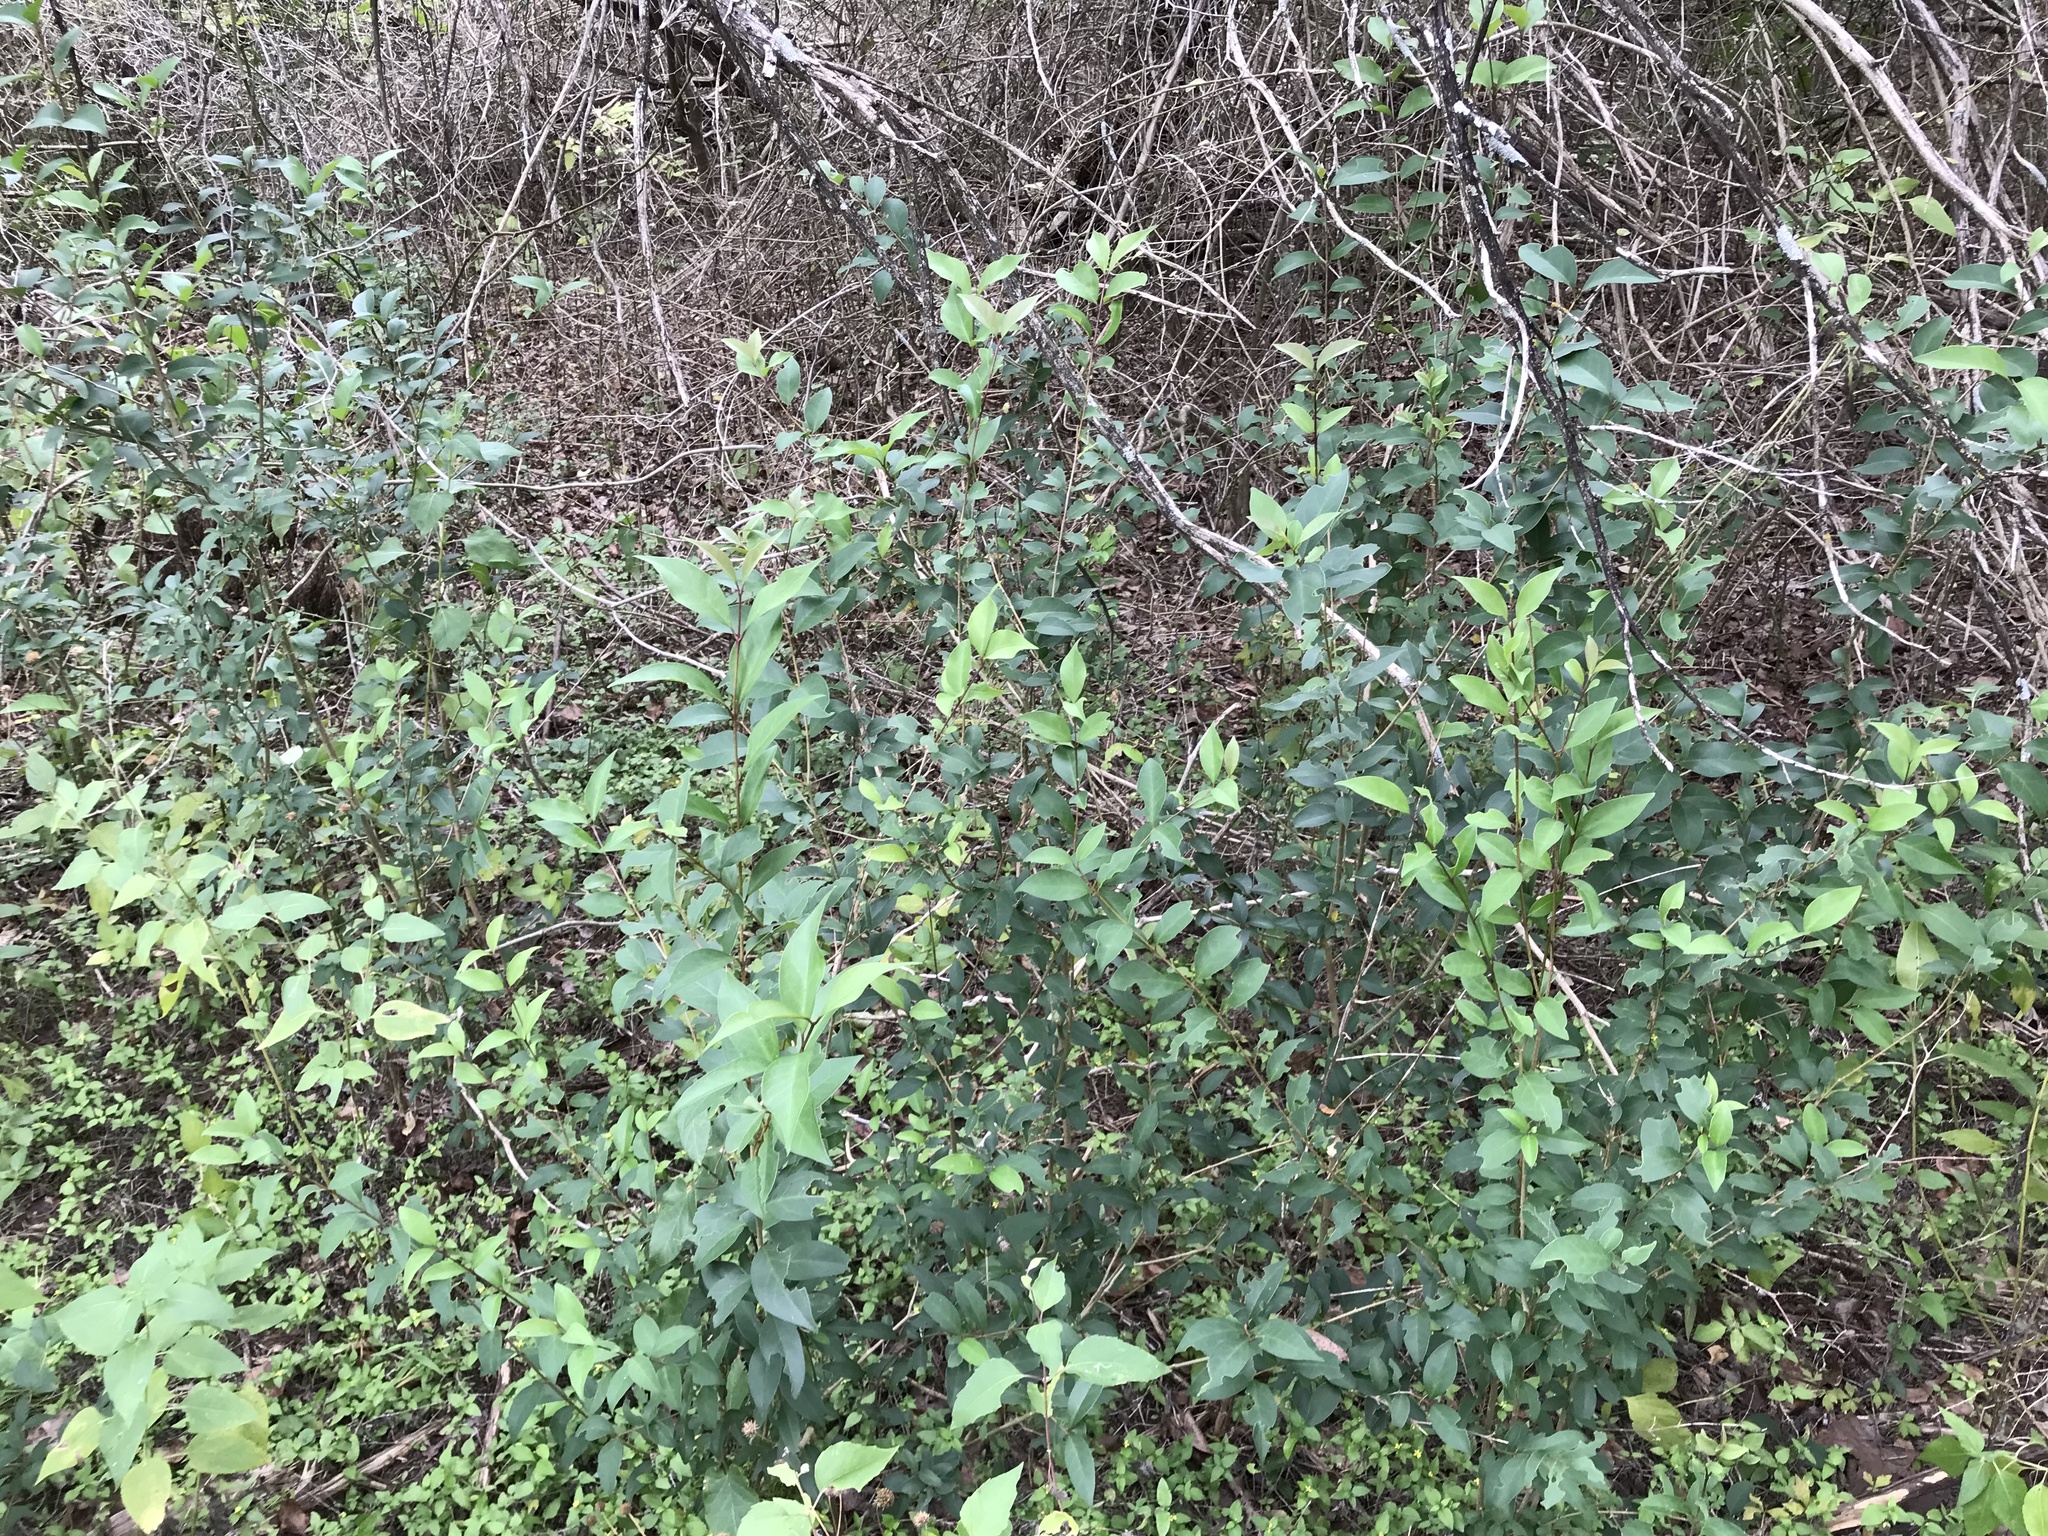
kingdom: Plantae
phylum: Tracheophyta
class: Magnoliopsida
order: Lamiales
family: Oleaceae
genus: Ligustrum
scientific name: Ligustrum lucidum
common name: Glossy privet
